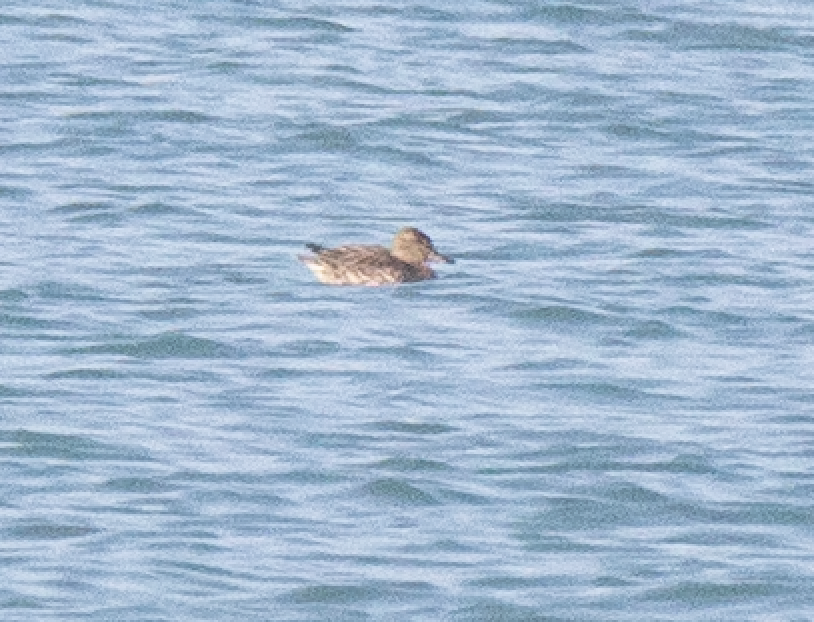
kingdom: Animalia
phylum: Chordata
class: Aves
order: Anseriformes
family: Anatidae
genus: Anas
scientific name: Anas crecca
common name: Eurasian teal
